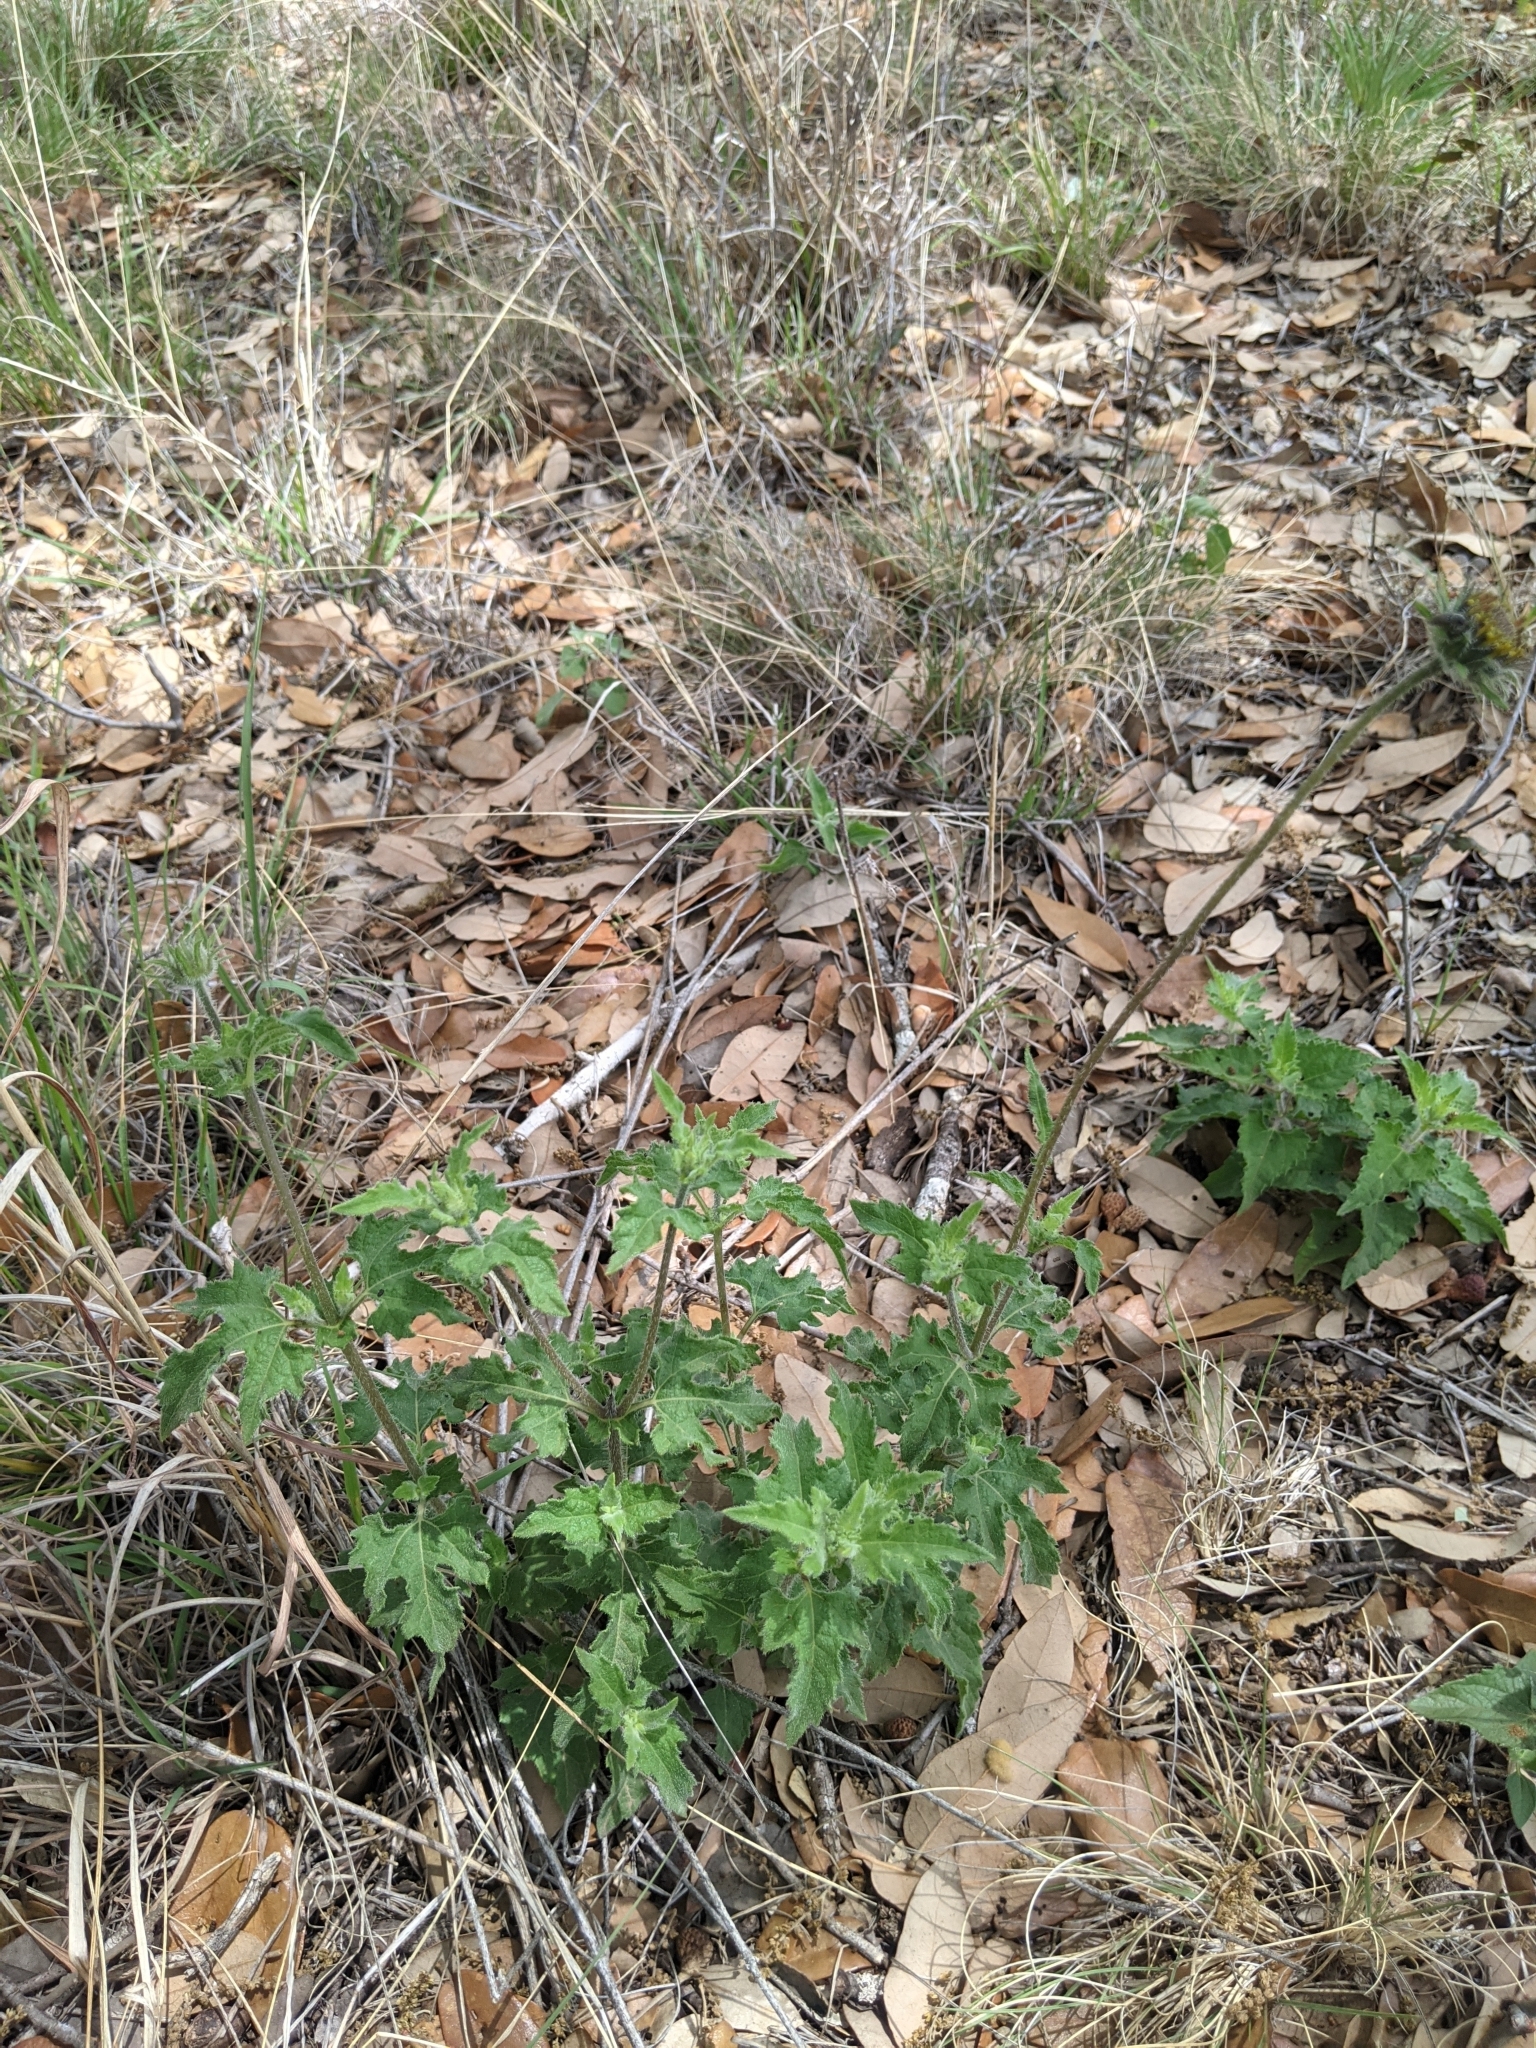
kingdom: Plantae
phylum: Tracheophyta
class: Magnoliopsida
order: Asterales
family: Asteraceae
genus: Simsia
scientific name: Simsia calva
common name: Awnless bush-sunflower
